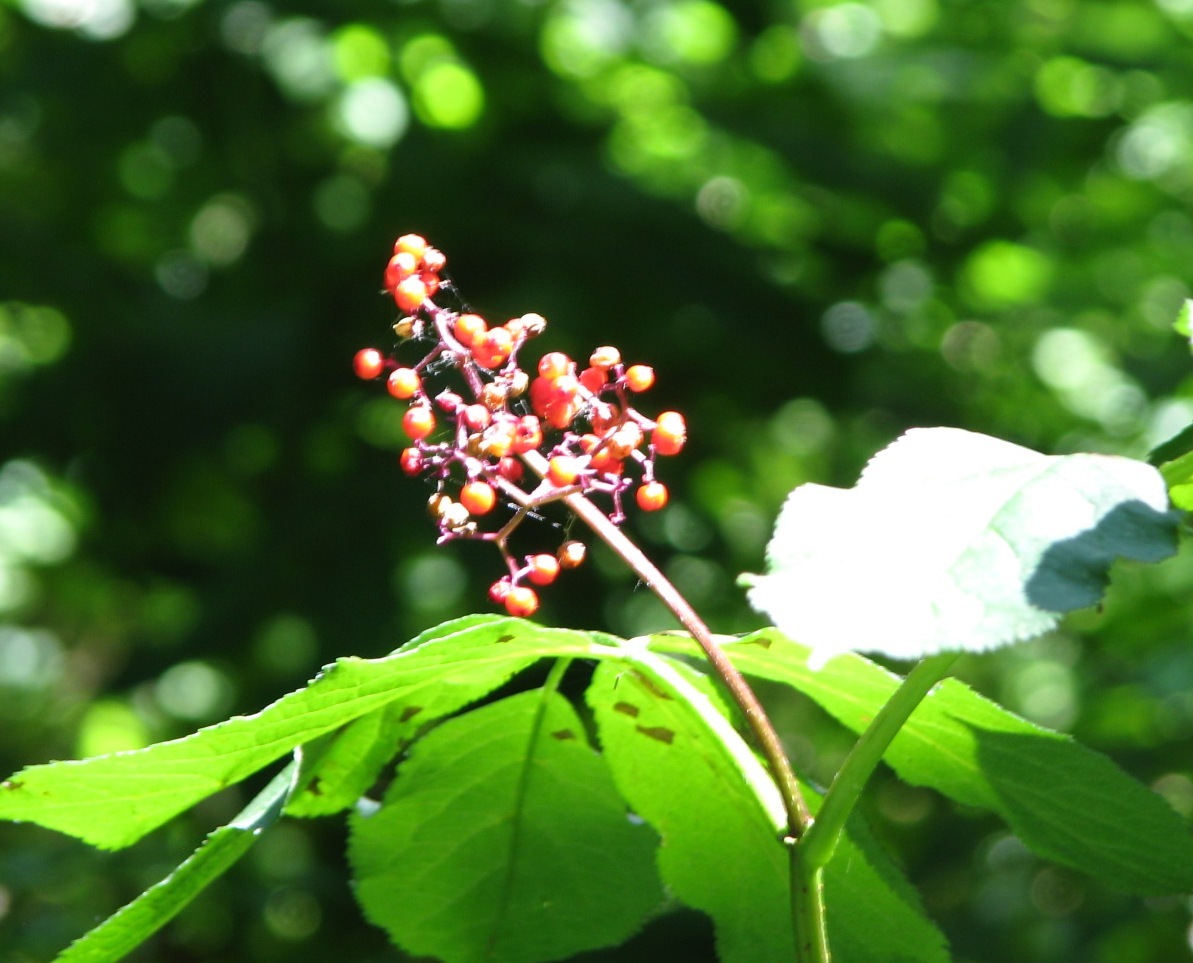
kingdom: Plantae
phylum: Tracheophyta
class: Magnoliopsida
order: Dipsacales
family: Viburnaceae
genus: Sambucus
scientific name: Sambucus racemosa
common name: Red-berried elder
